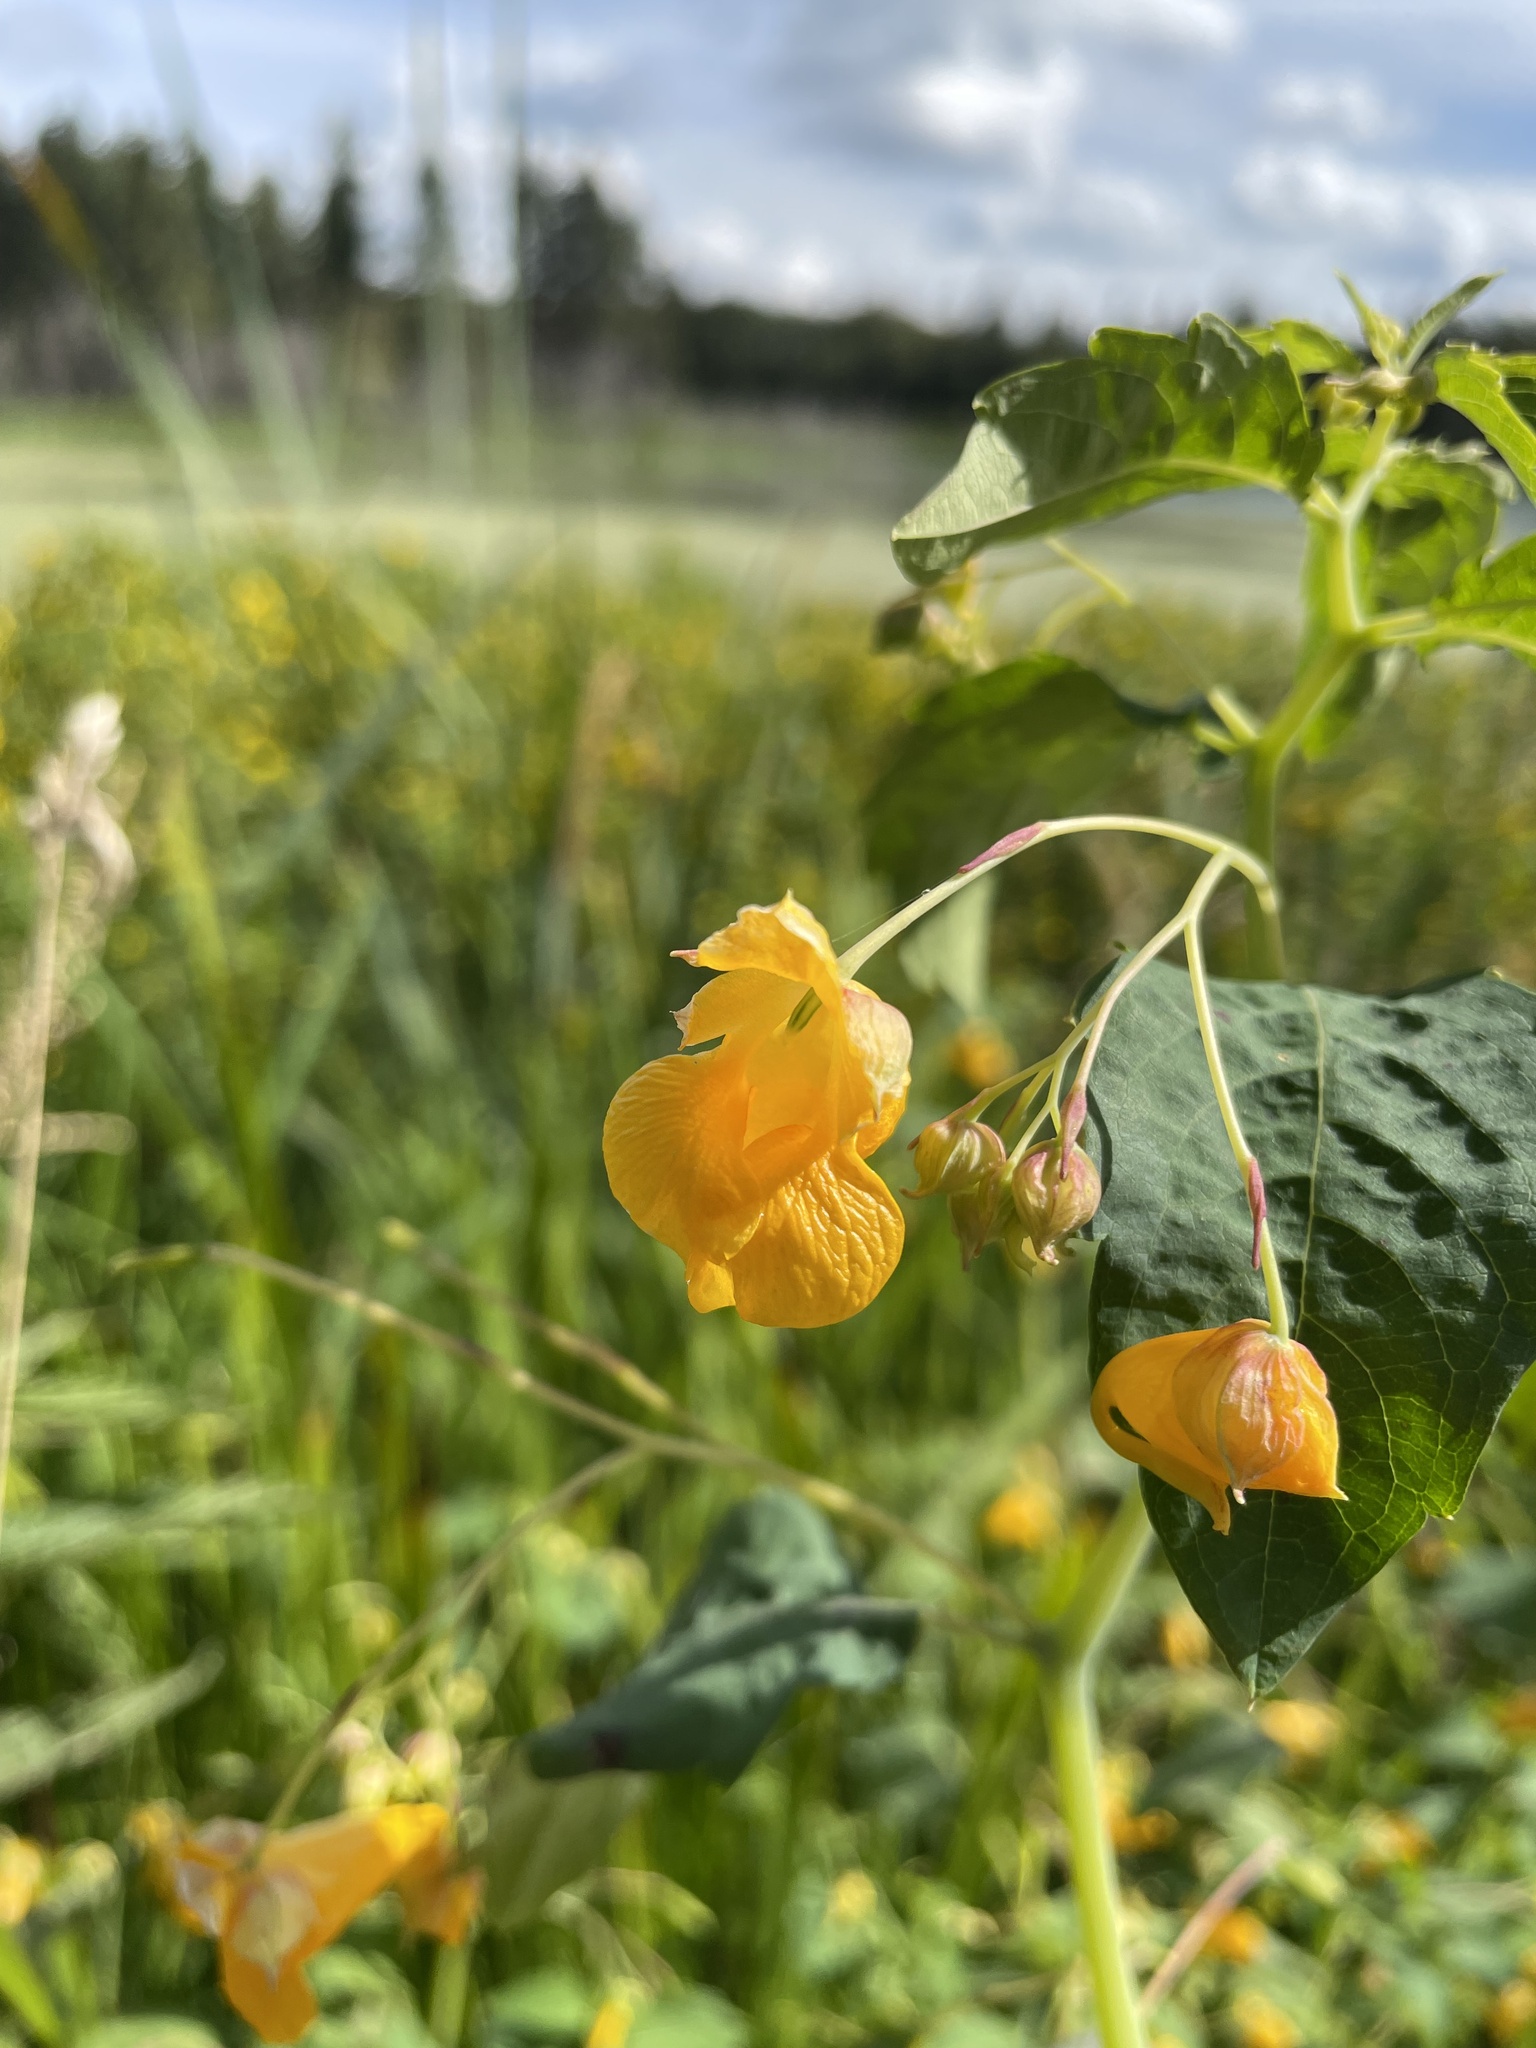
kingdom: Plantae
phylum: Tracheophyta
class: Magnoliopsida
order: Ericales
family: Balsaminaceae
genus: Impatiens
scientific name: Impatiens capensis
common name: Orange balsam
